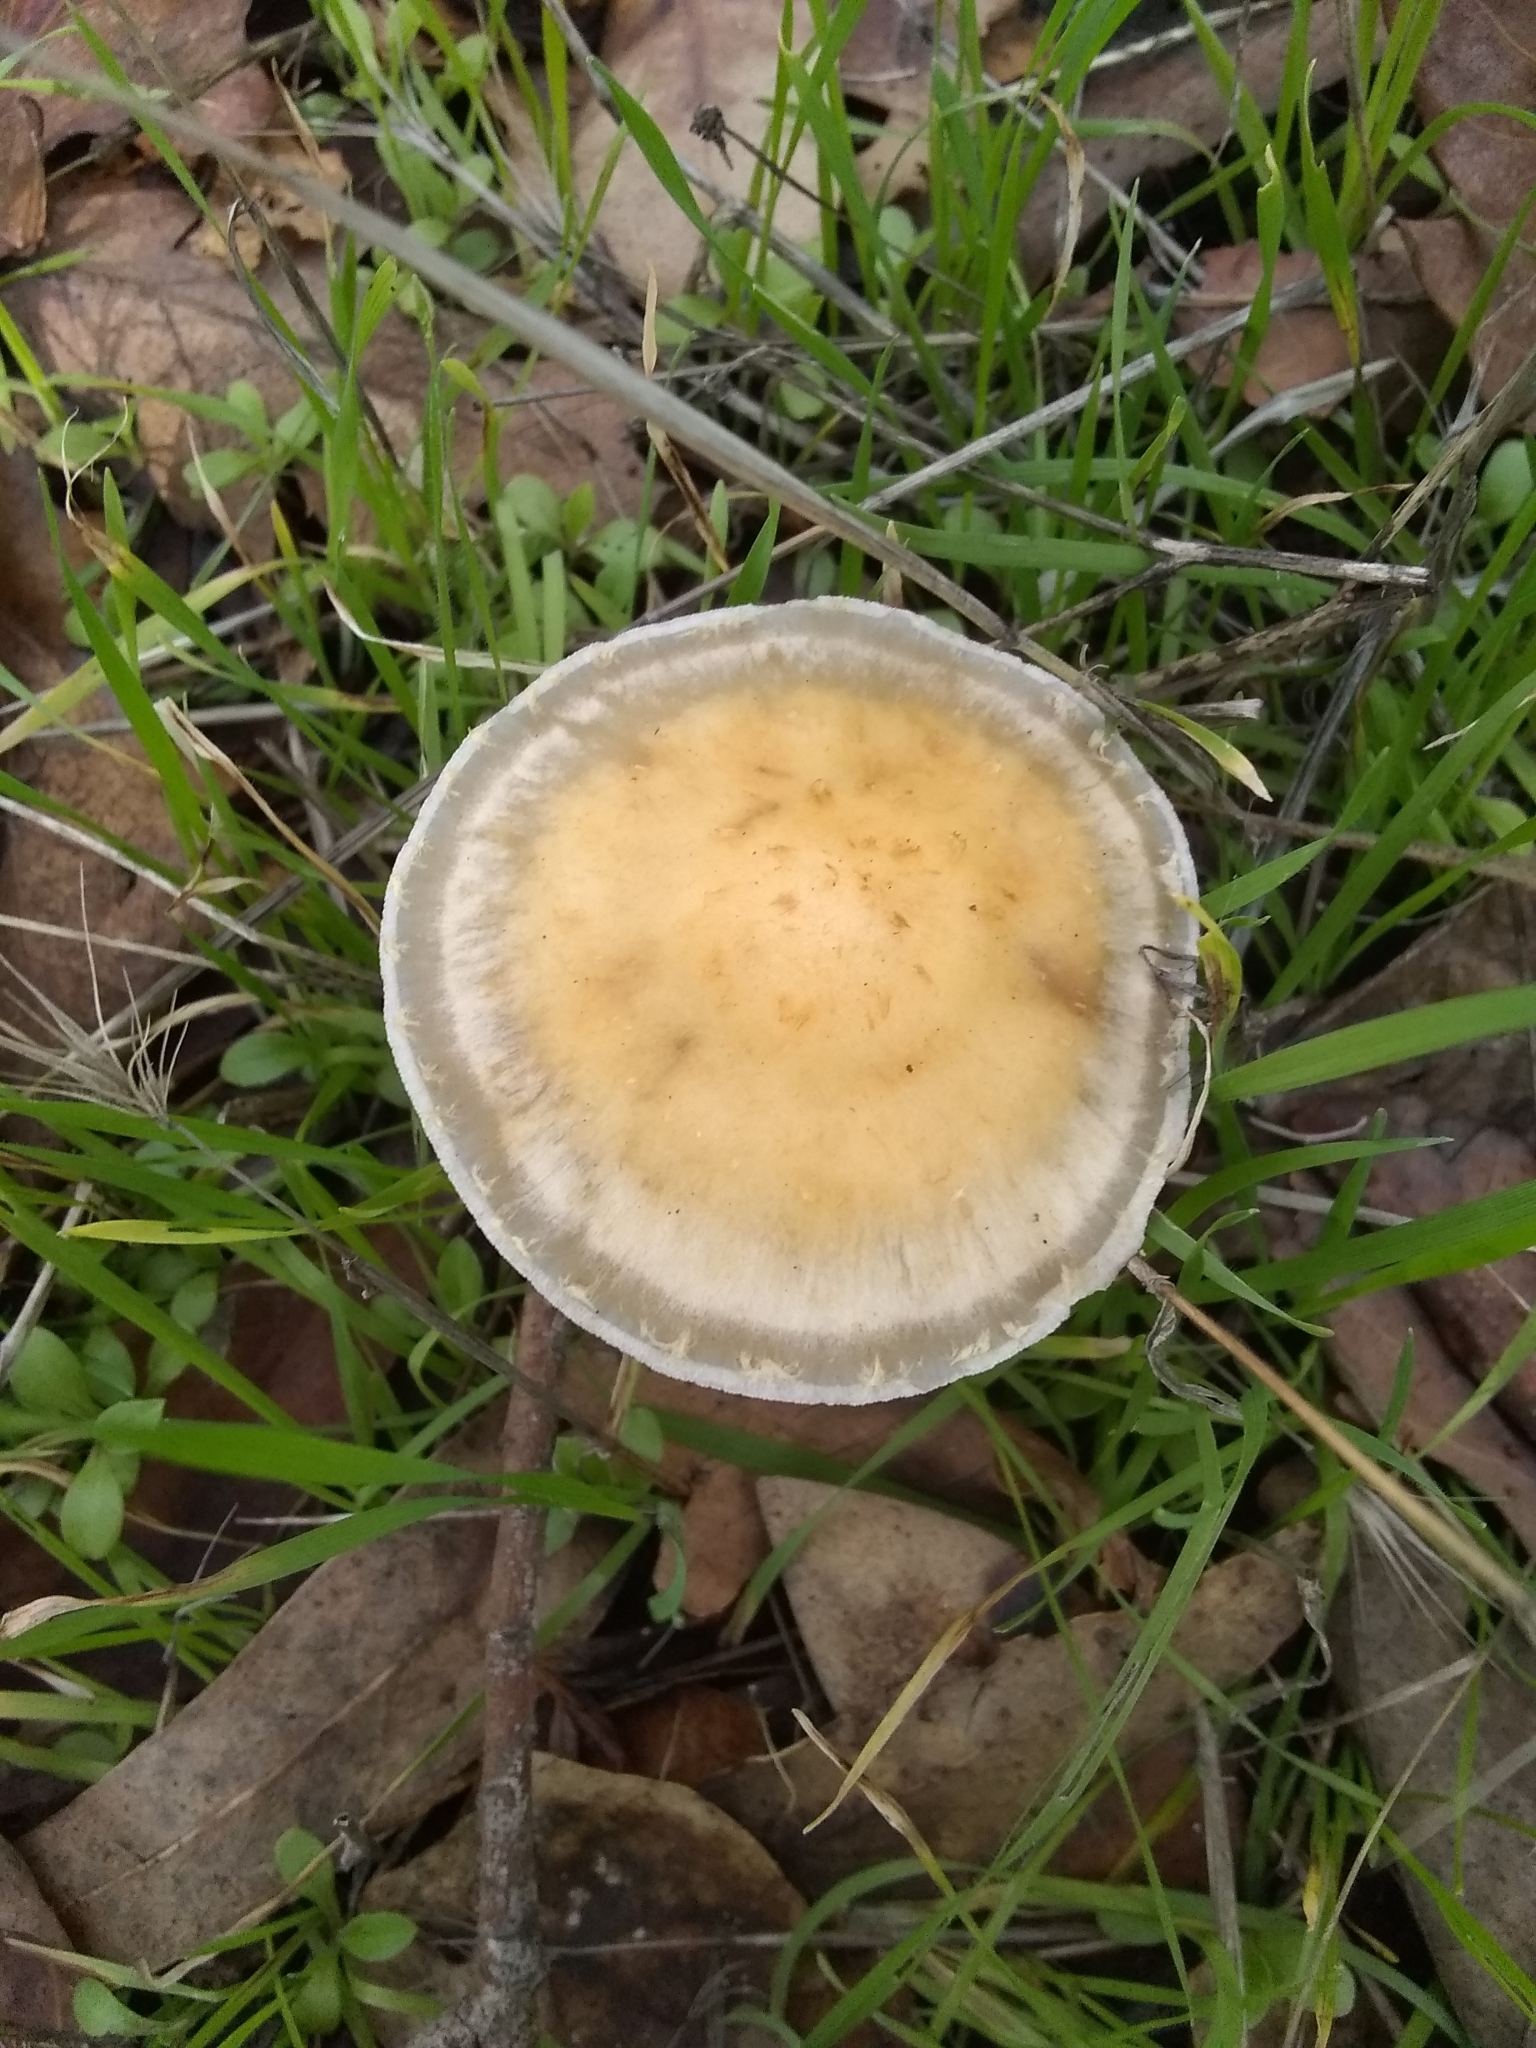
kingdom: Fungi
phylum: Basidiomycota
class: Agaricomycetes
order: Agaricales
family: Strophariaceae
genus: Leratiomyces
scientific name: Leratiomyces percevalii
